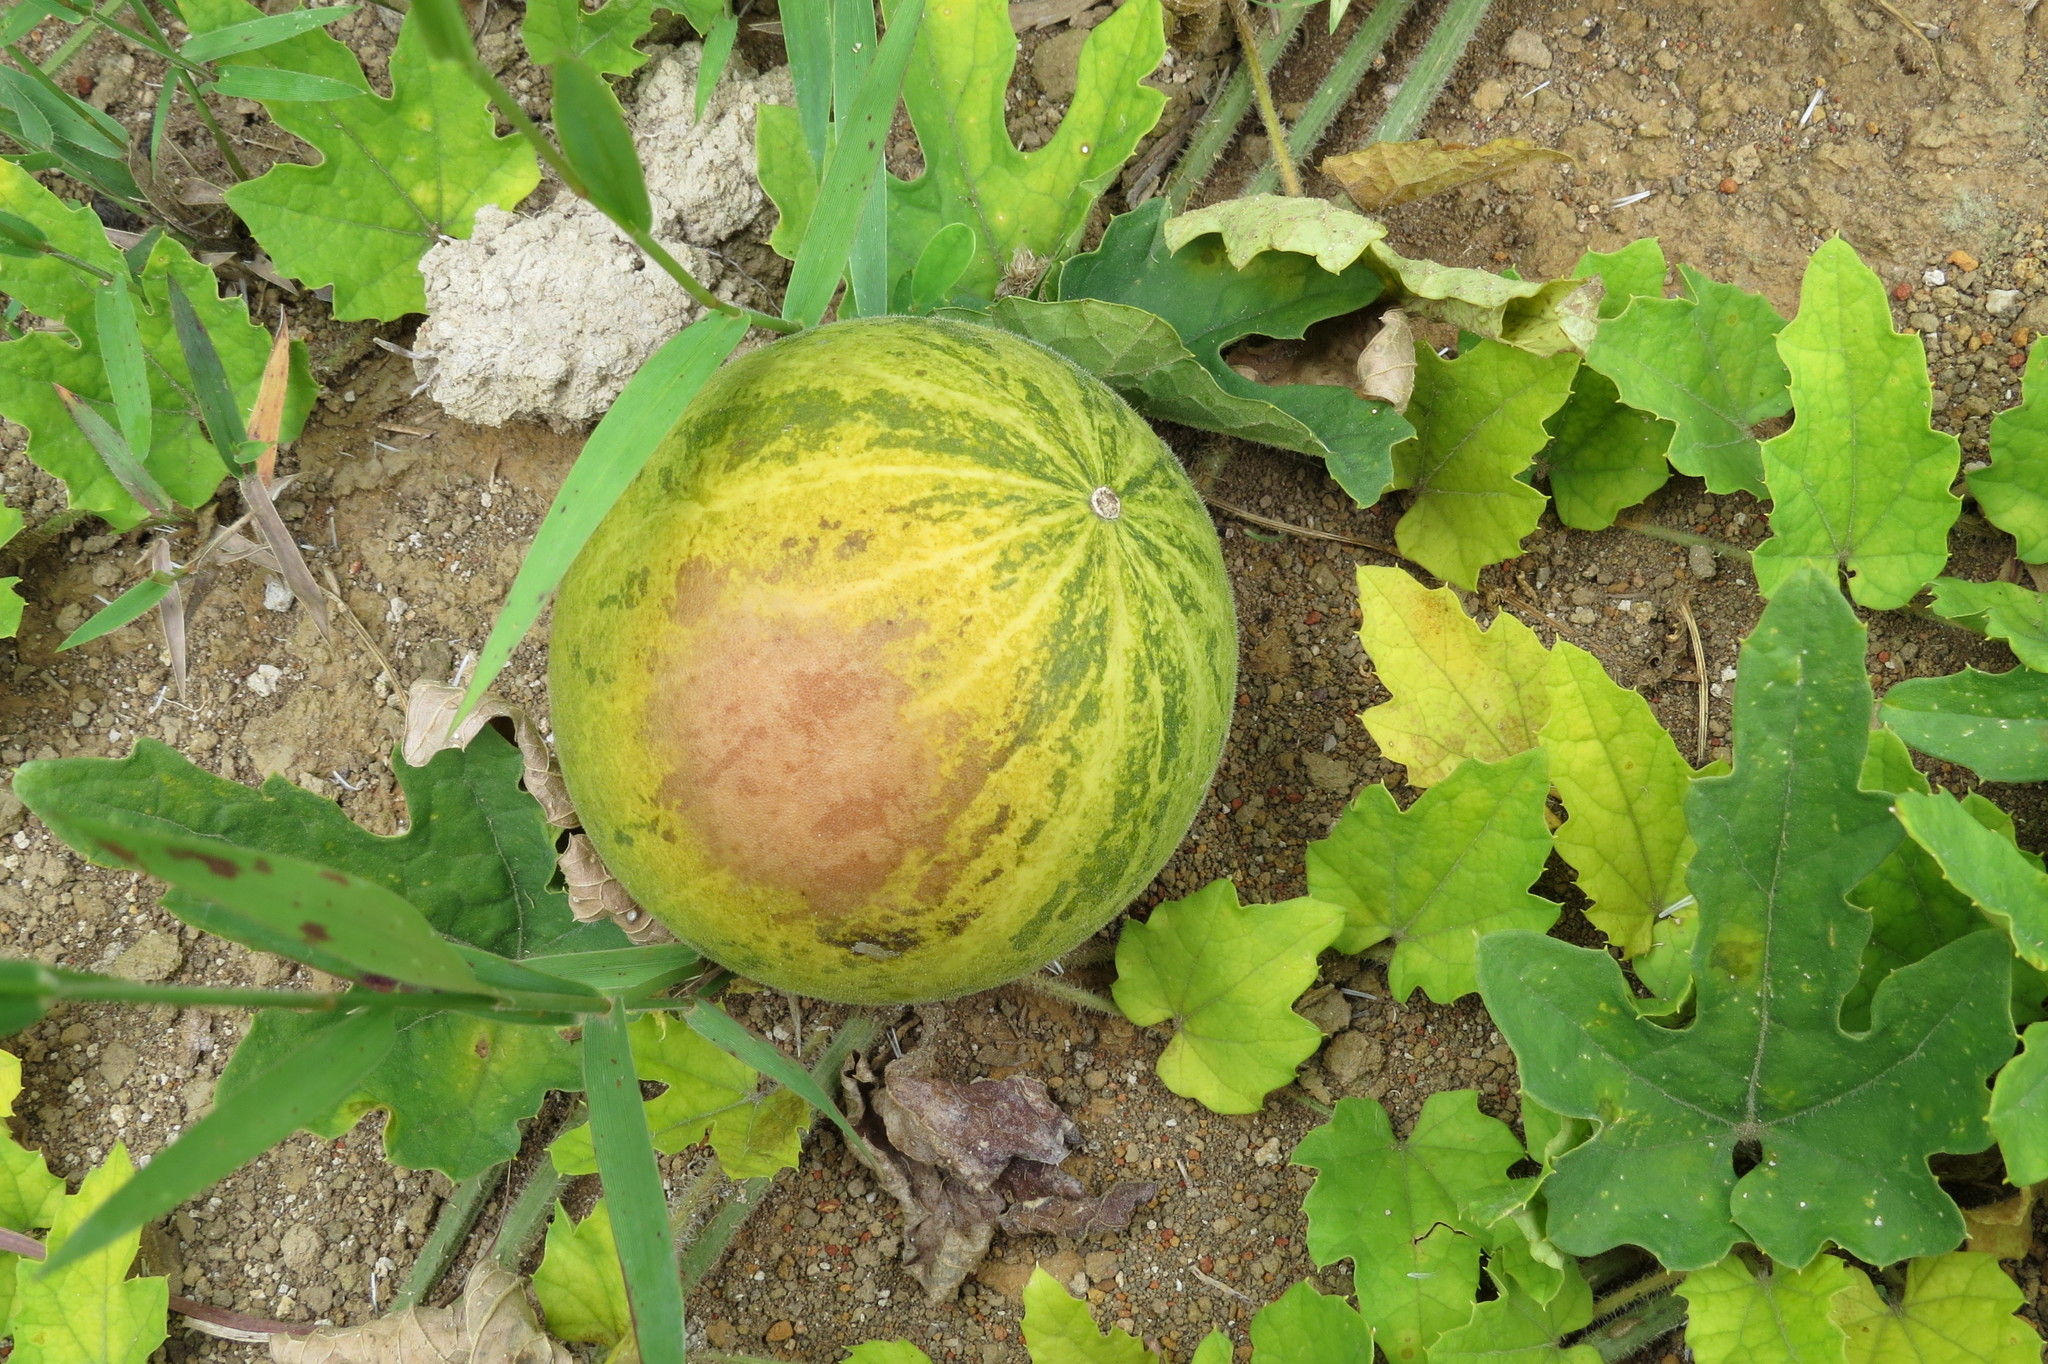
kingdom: Plantae
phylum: Tracheophyta
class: Magnoliopsida
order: Cucurbitales
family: Cucurbitaceae
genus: Melothria
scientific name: Melothria campestris
